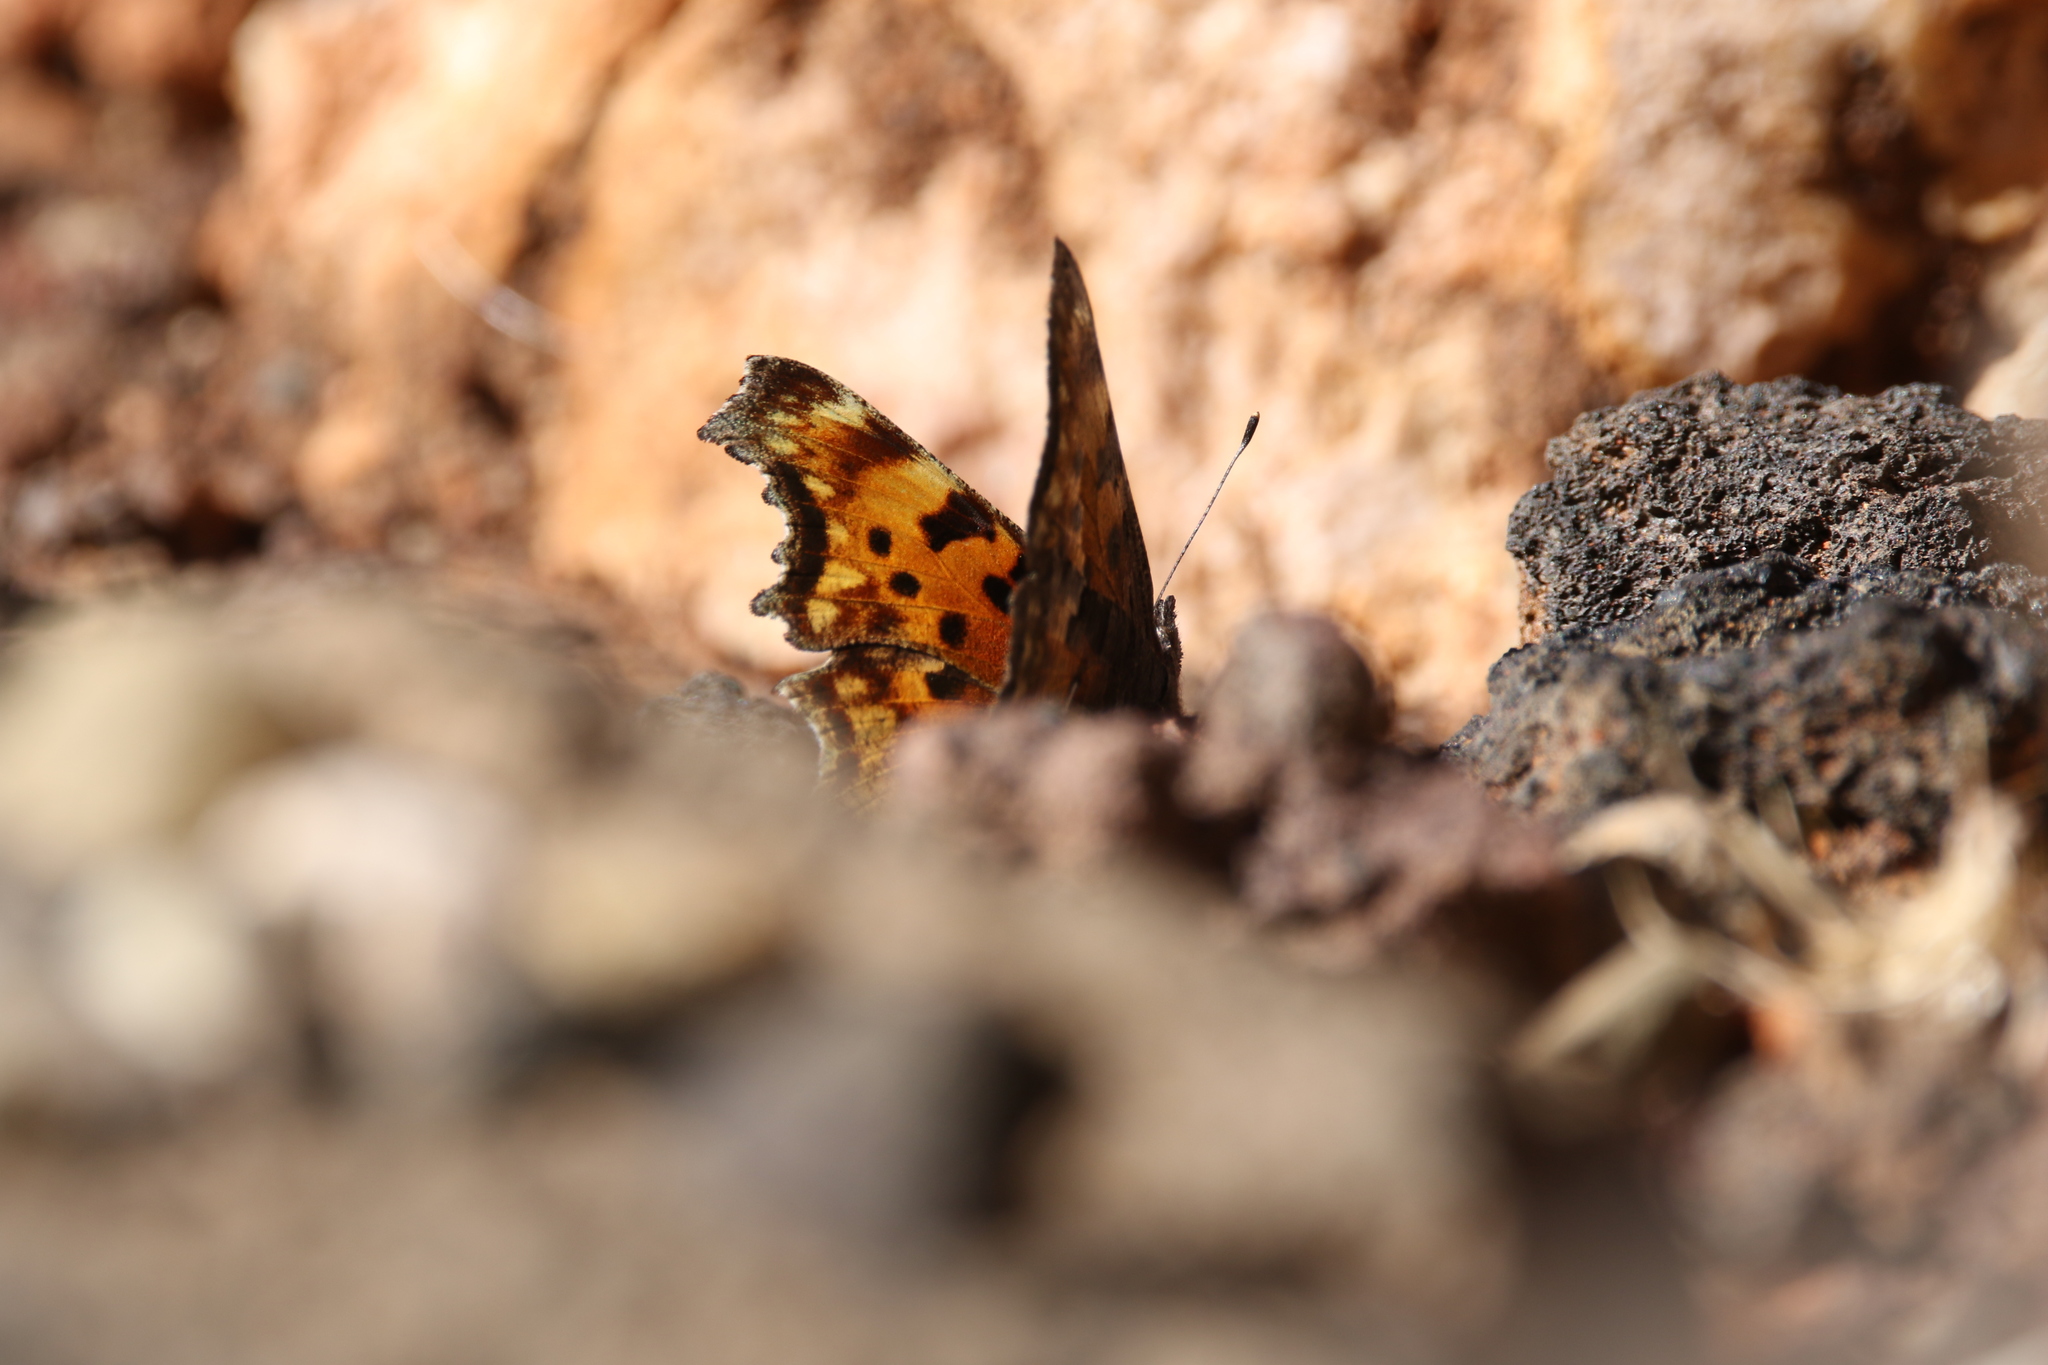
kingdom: Animalia
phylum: Arthropoda
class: Insecta
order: Lepidoptera
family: Nymphalidae
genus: Polygonia
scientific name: Polygonia gracilis
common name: Hoary comma
